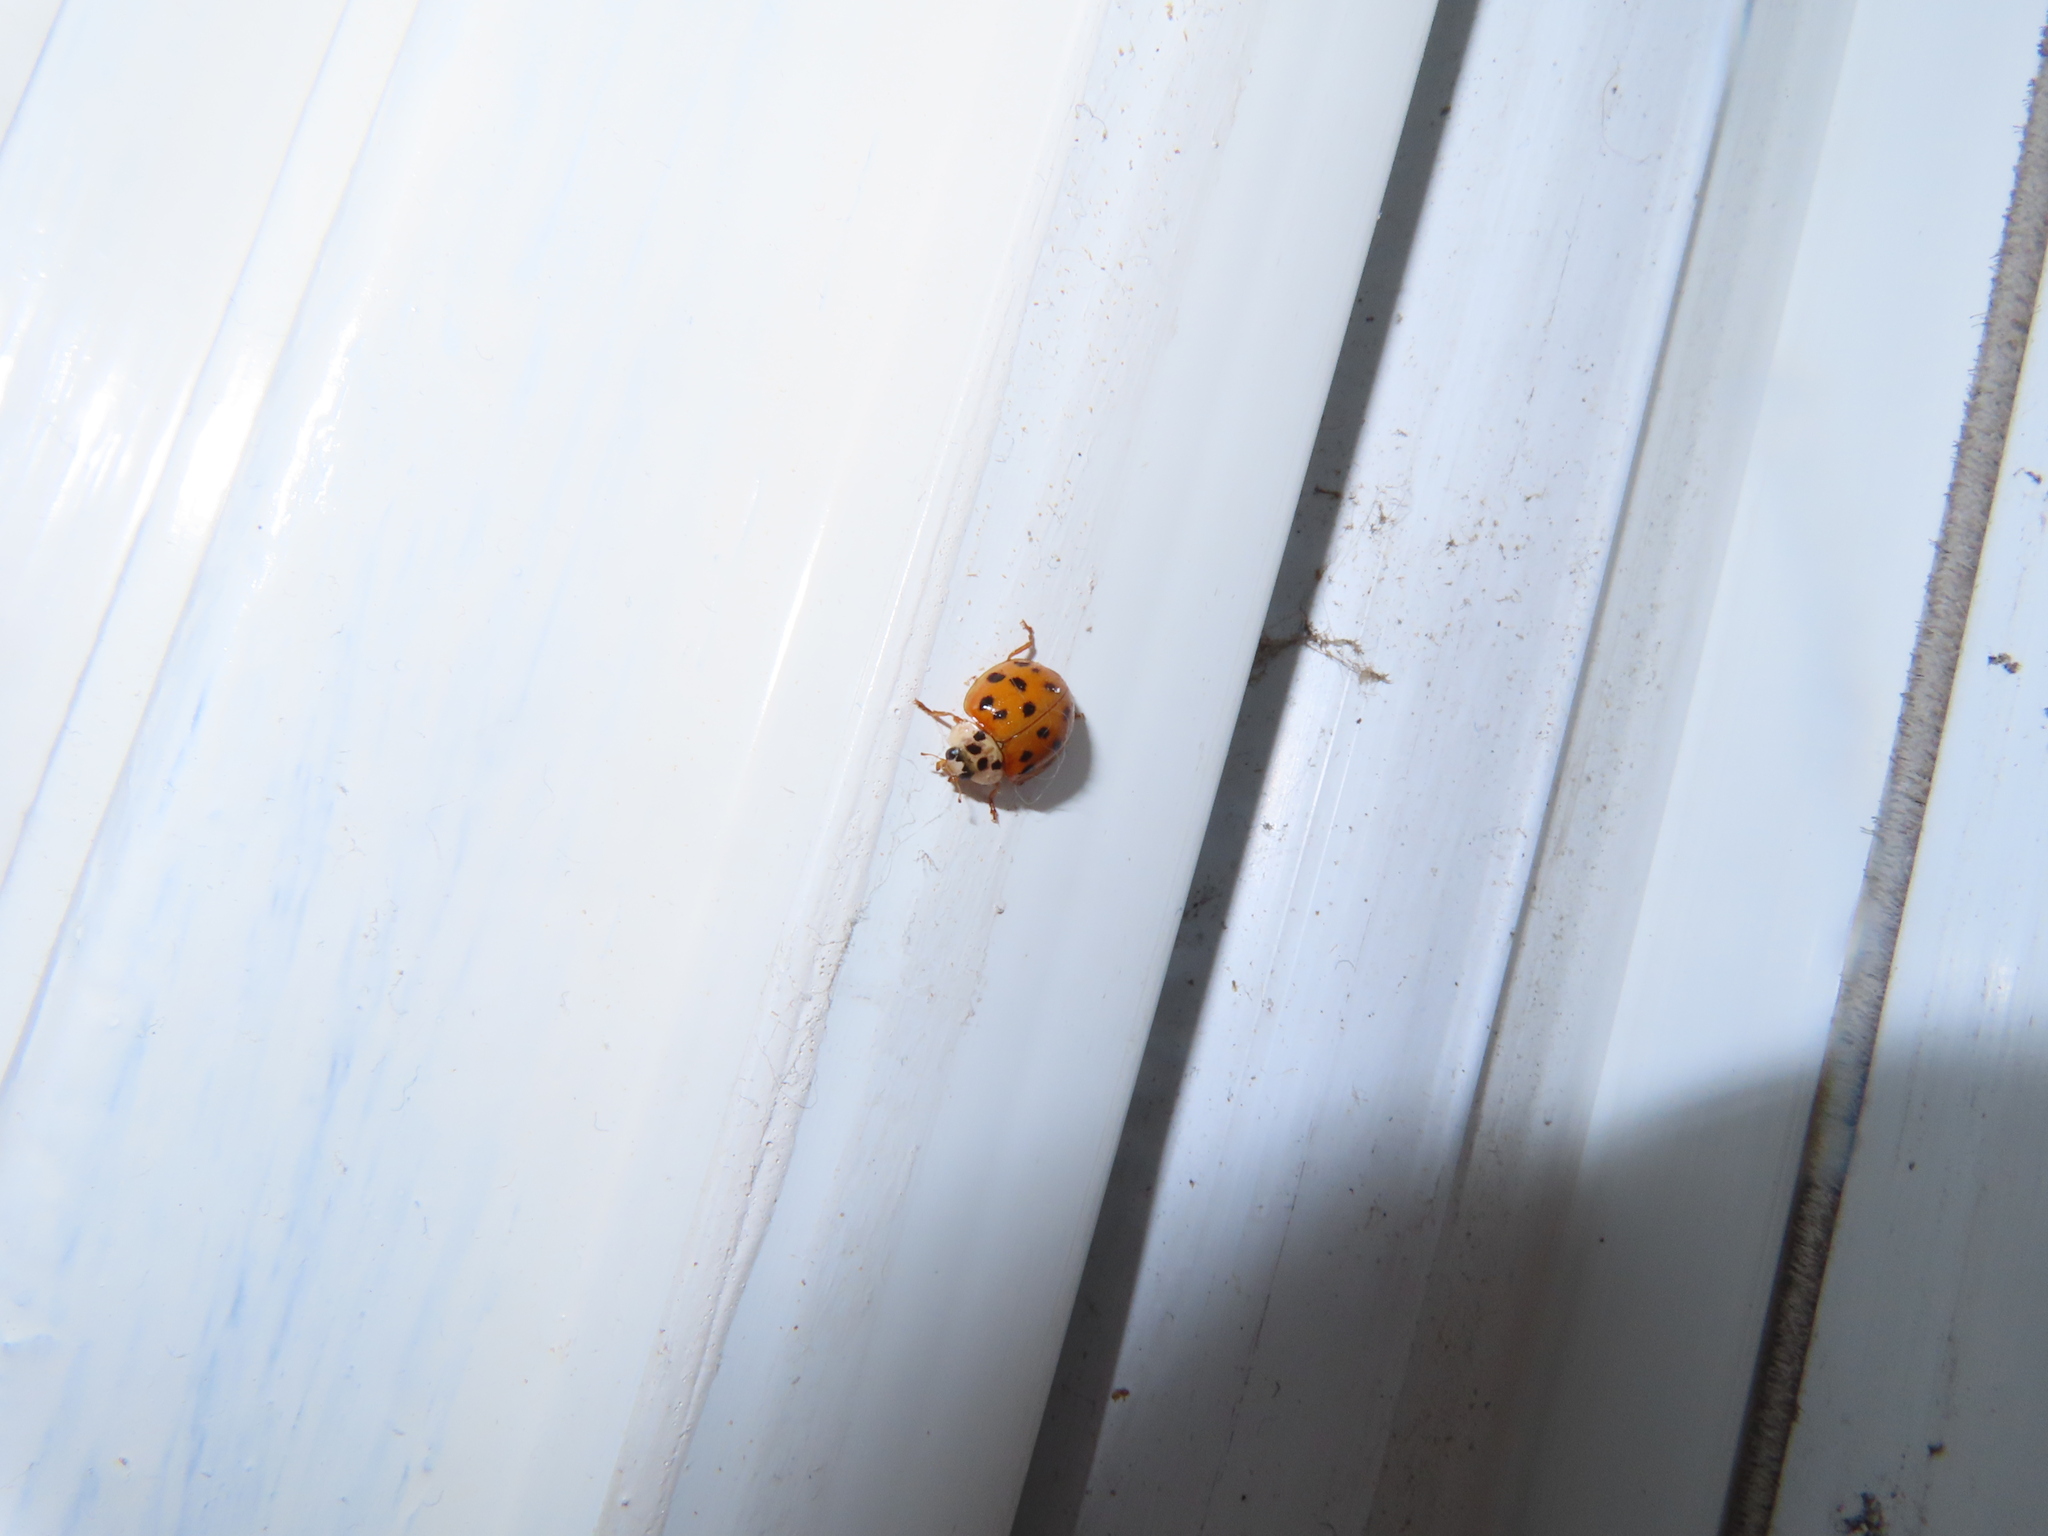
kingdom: Animalia
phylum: Arthropoda
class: Insecta
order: Coleoptera
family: Coccinellidae
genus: Harmonia
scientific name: Harmonia axyridis
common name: Harlequin ladybird
